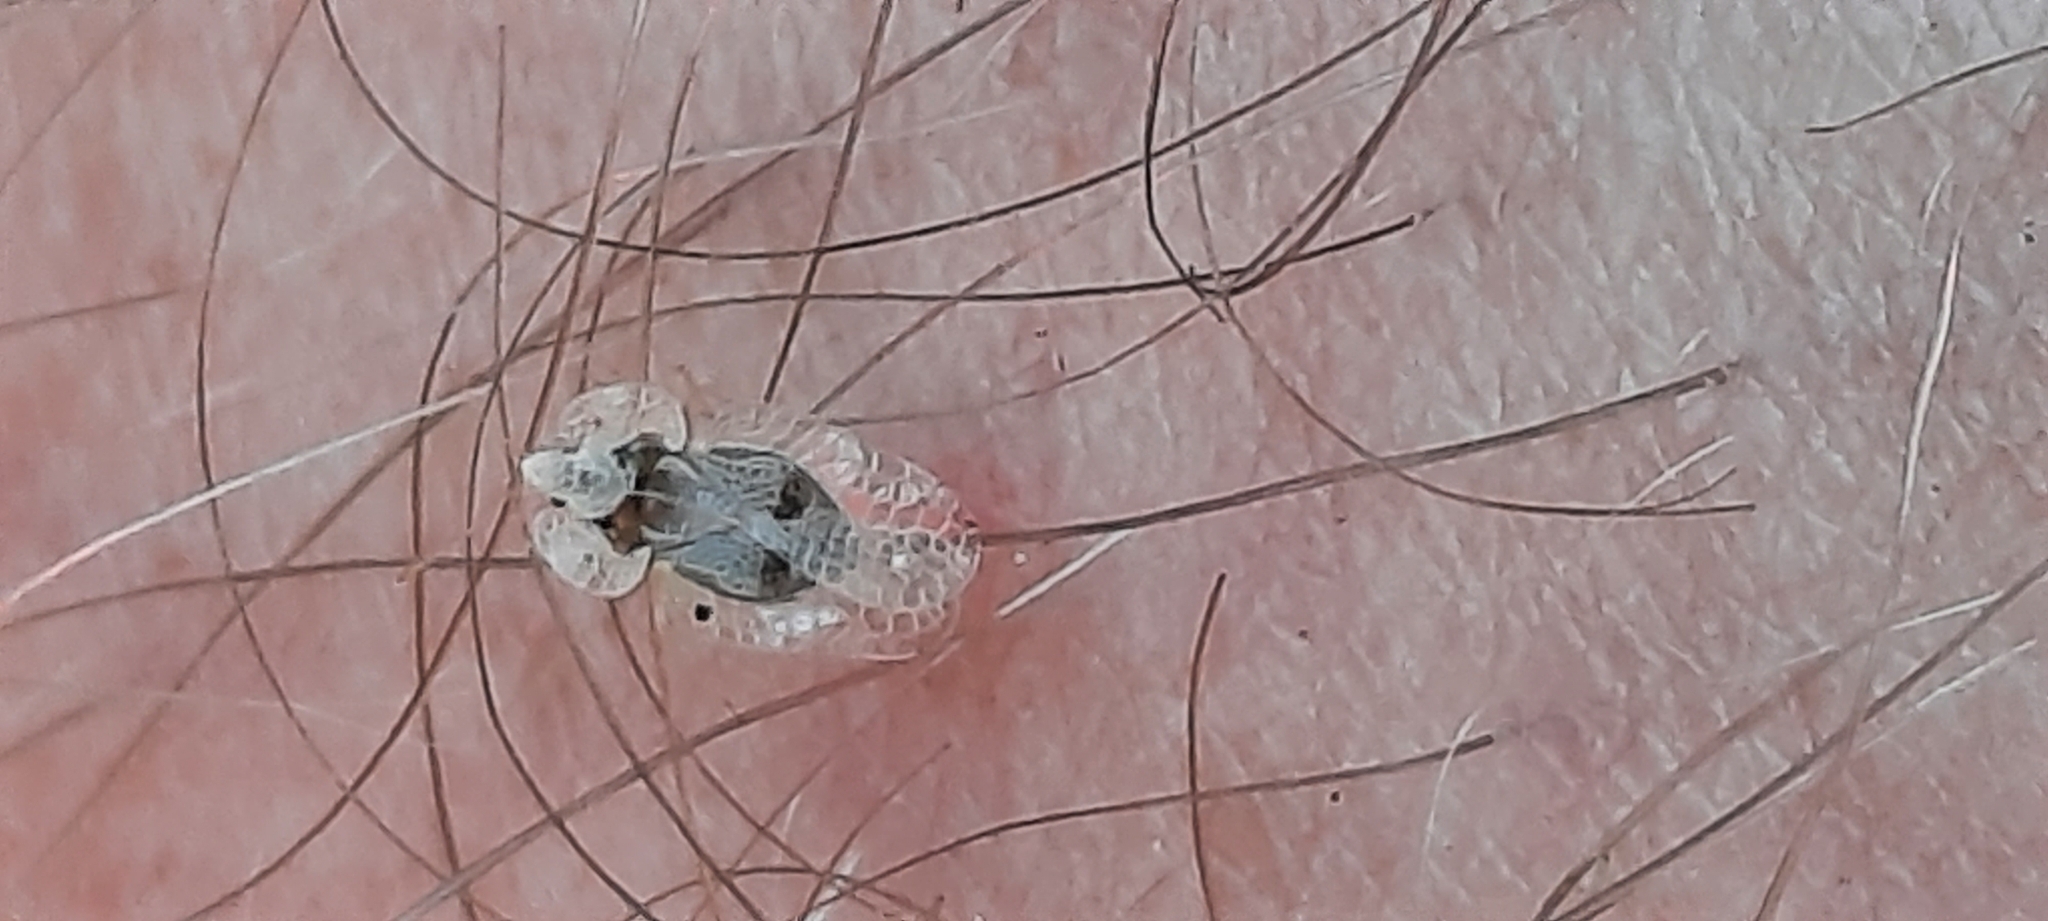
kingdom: Animalia
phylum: Arthropoda
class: Insecta
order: Hemiptera
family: Tingidae
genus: Corythucha
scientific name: Corythucha ciliata
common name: Sycamore lace bug
